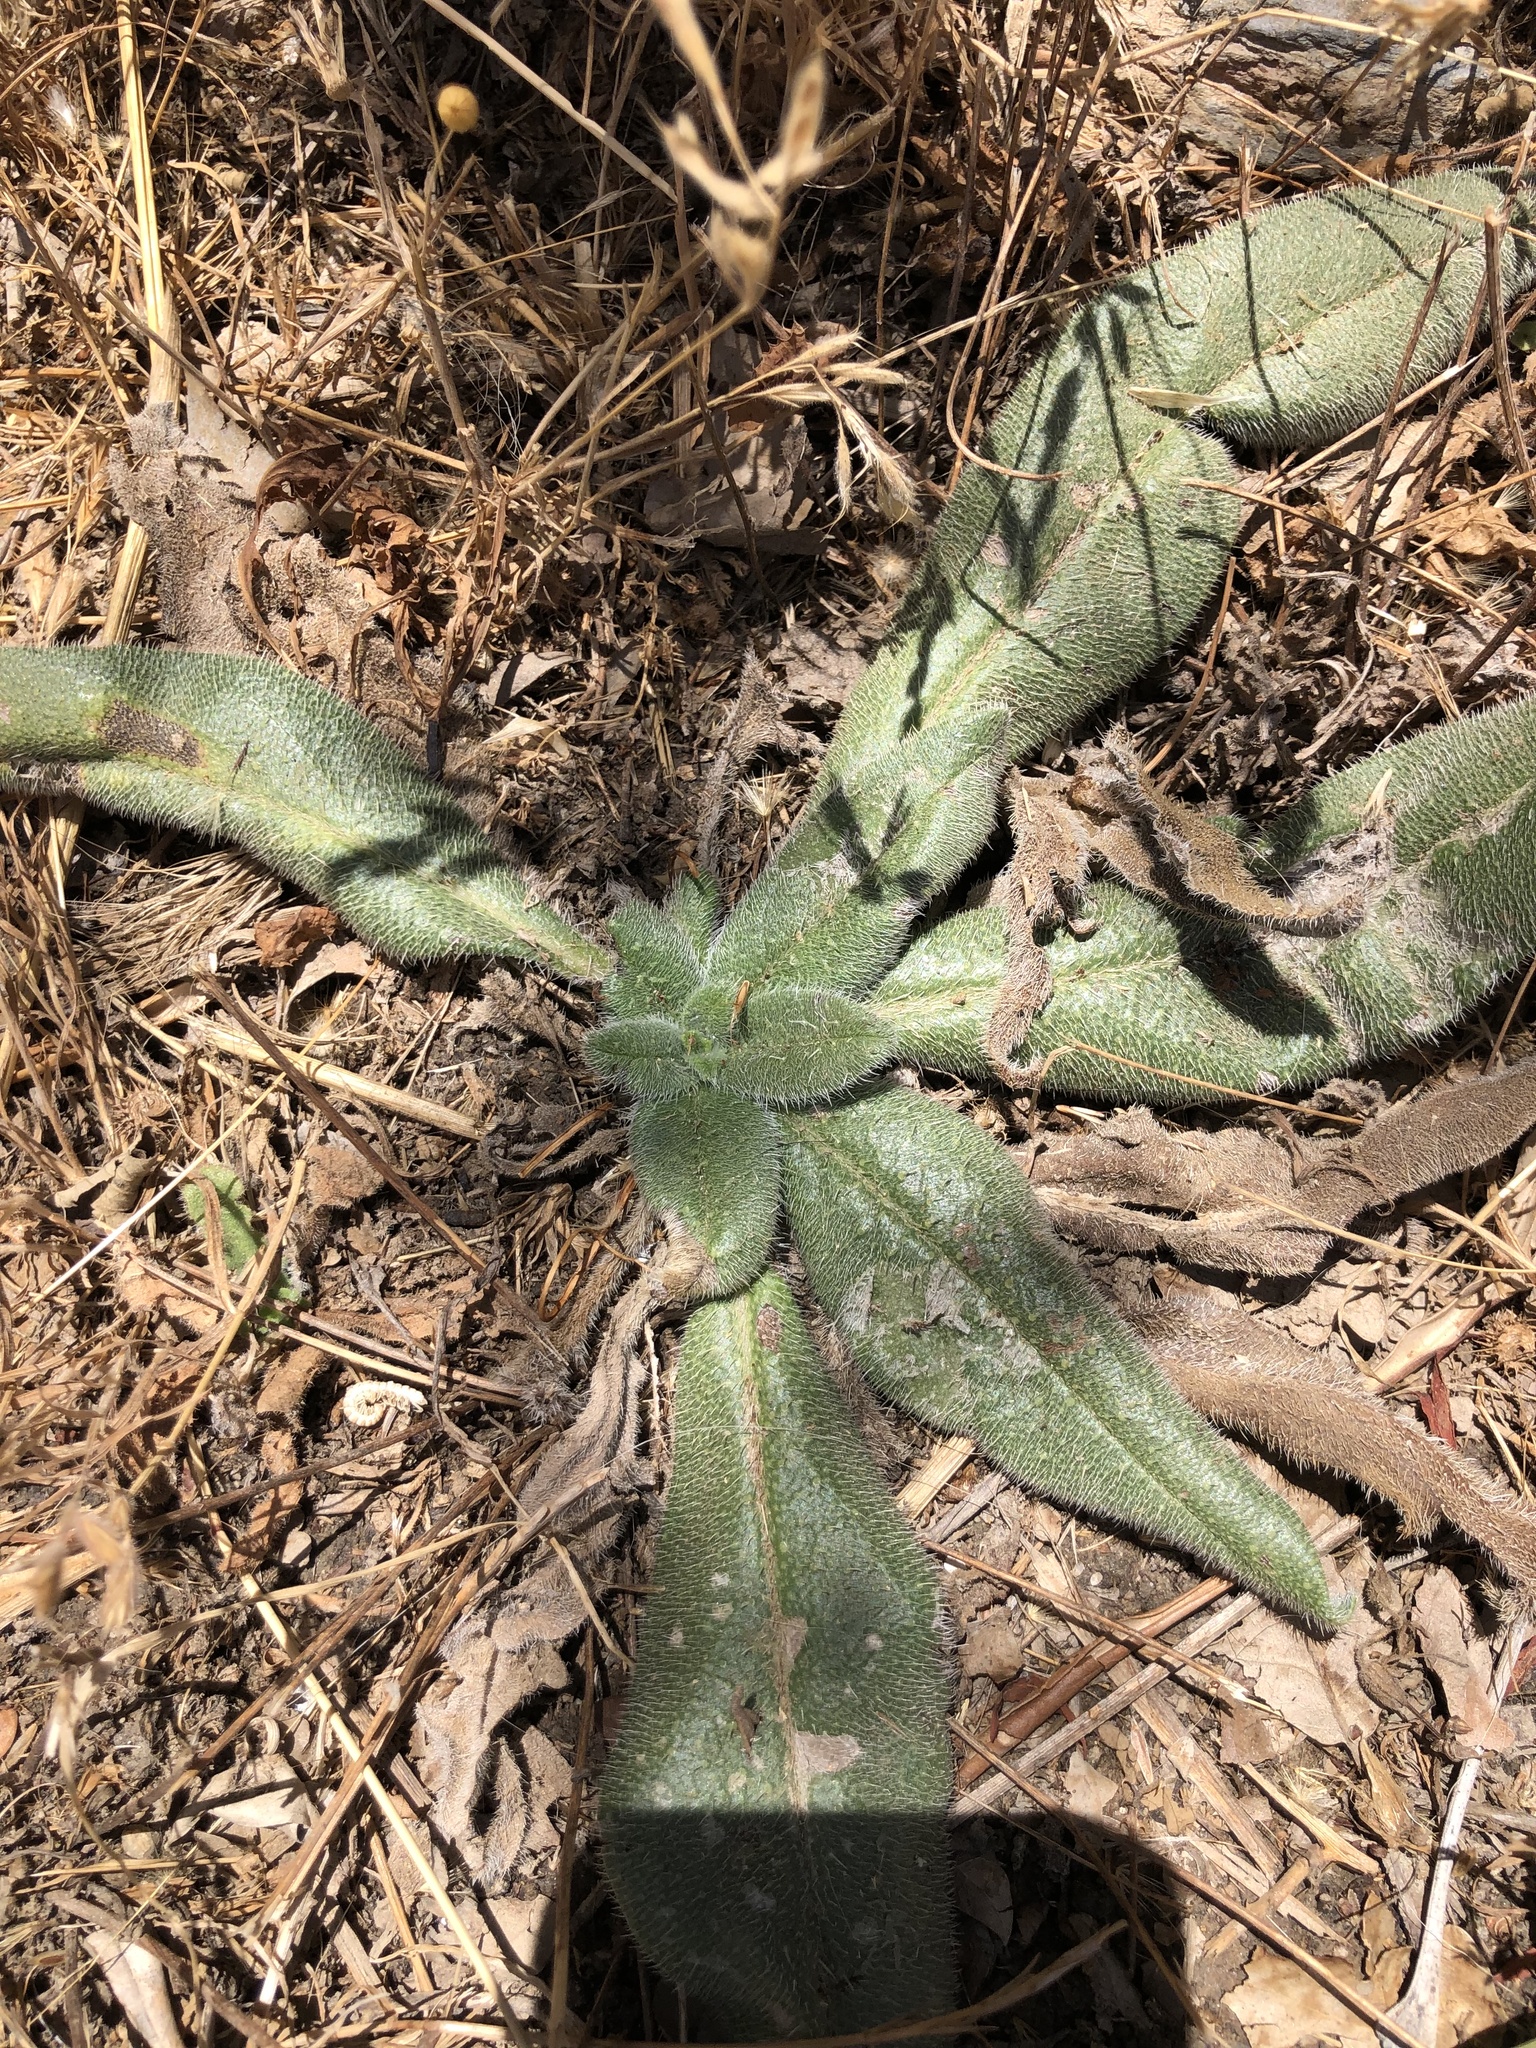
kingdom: Plantae
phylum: Tracheophyta
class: Magnoliopsida
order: Boraginales
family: Boraginaceae
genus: Echium
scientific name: Echium italicum
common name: Italian viper's bugloss
